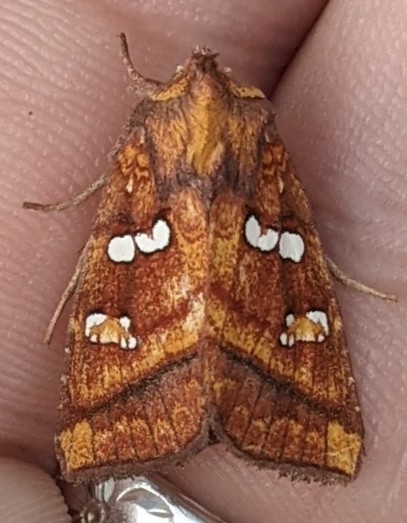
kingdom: Animalia
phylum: Arthropoda
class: Insecta
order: Lepidoptera
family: Noctuidae
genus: Papaipema
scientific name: Papaipema pterisii
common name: Bracken borer moth
